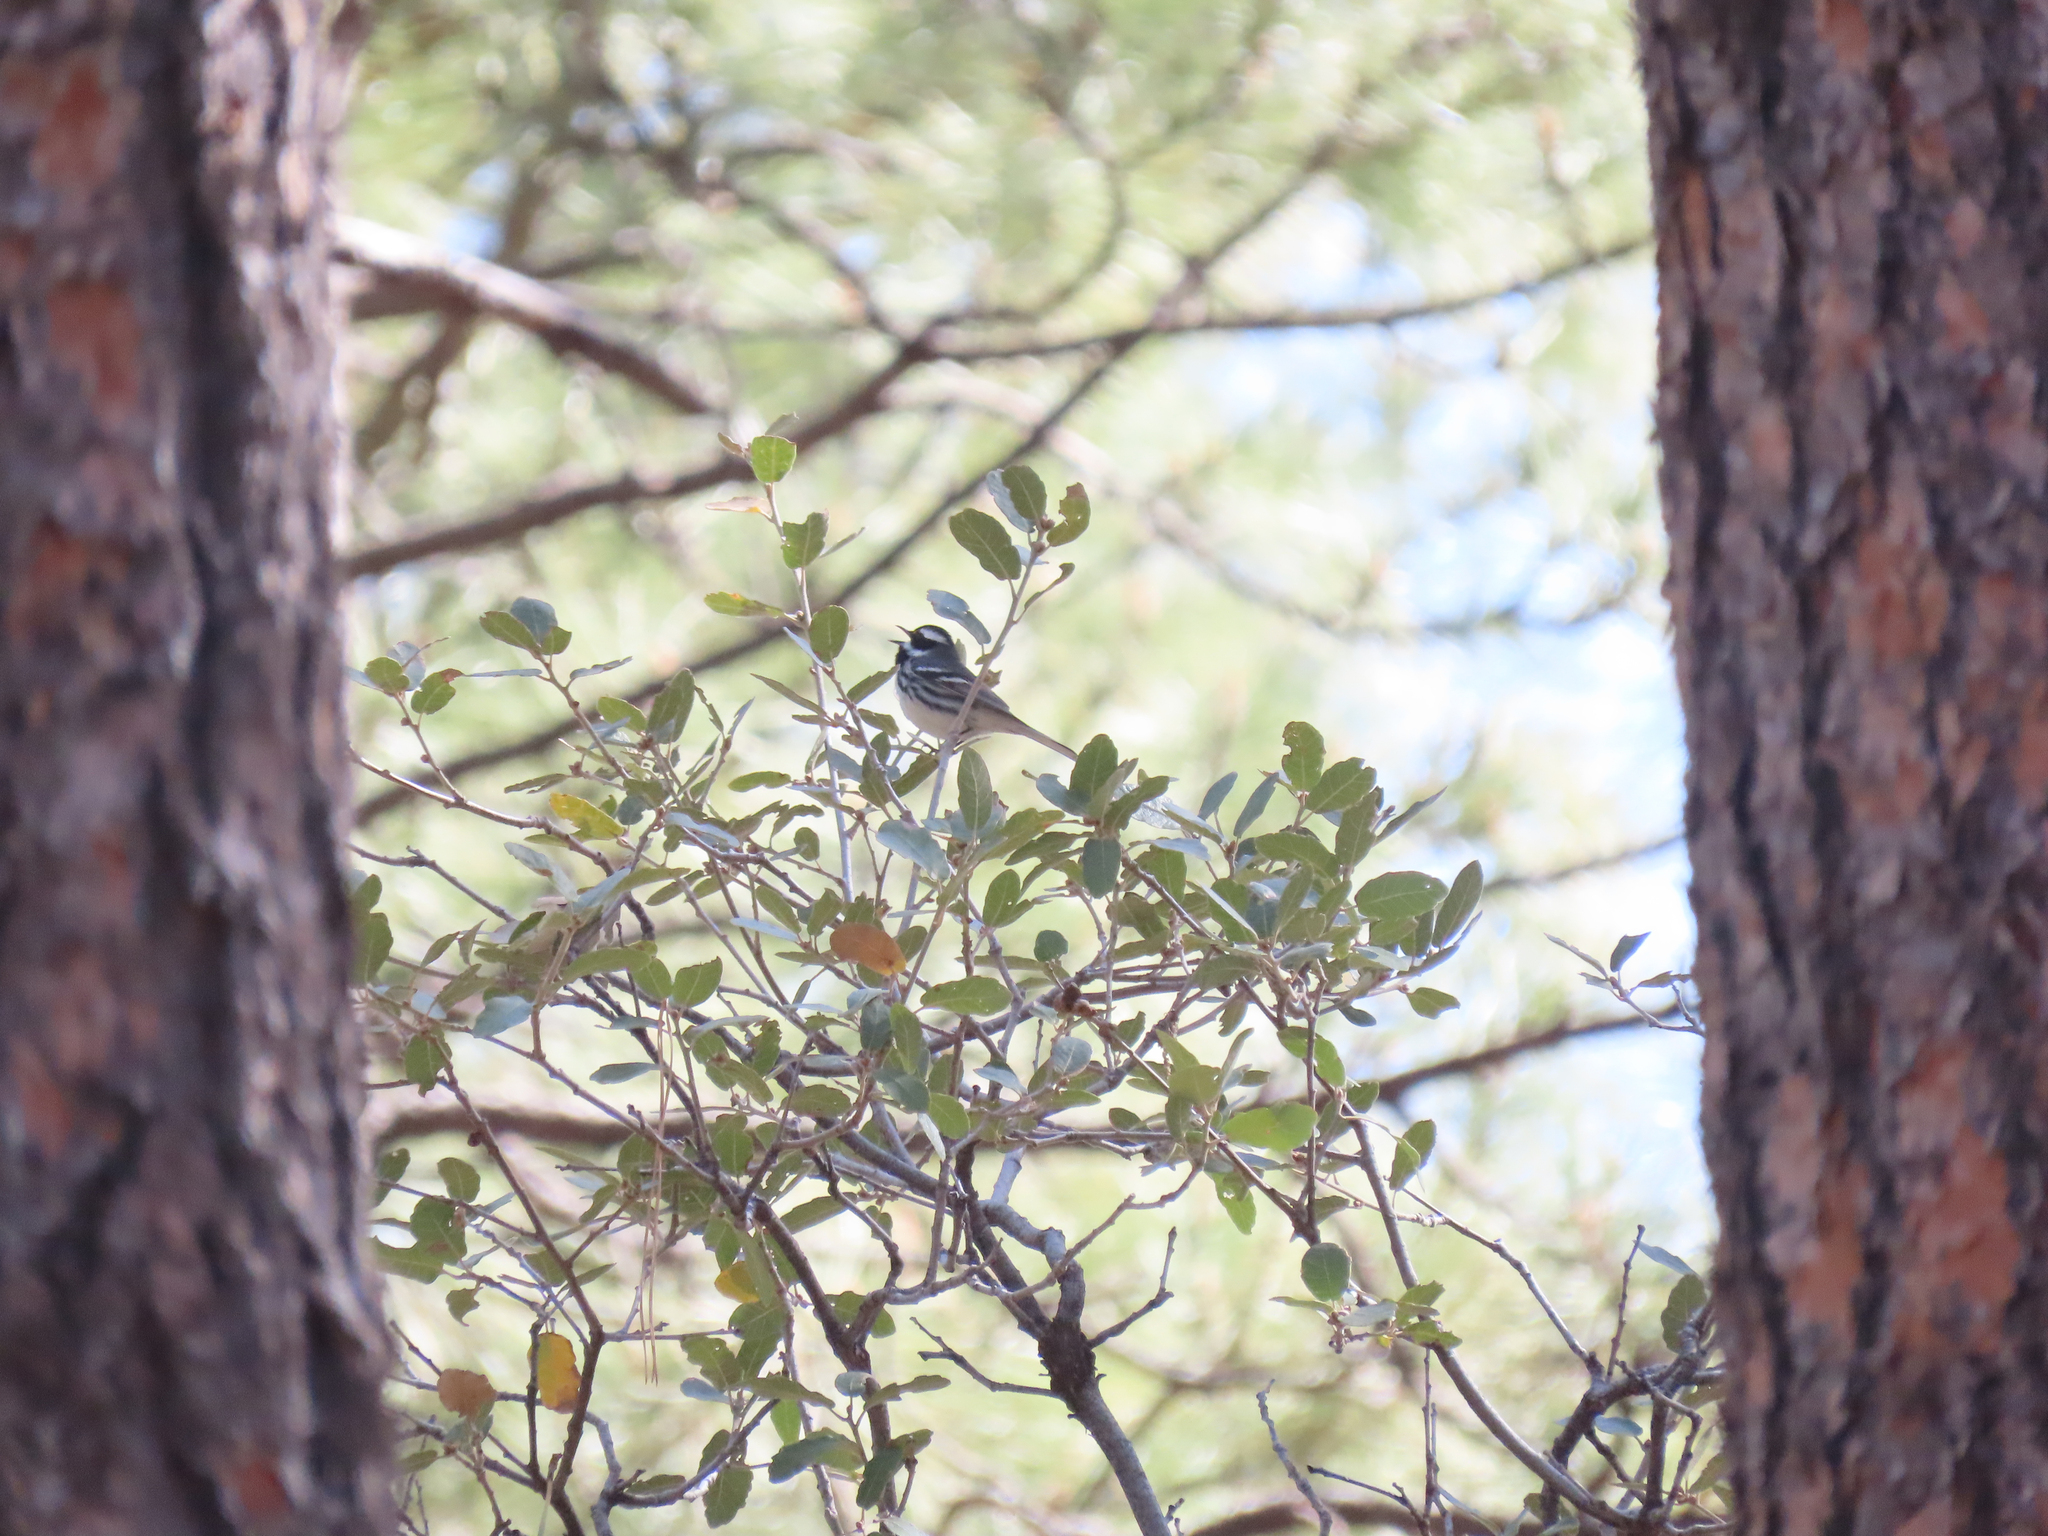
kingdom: Animalia
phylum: Chordata
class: Aves
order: Passeriformes
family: Parulidae
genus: Setophaga
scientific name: Setophaga nigrescens
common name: Black-throated gray warbler
